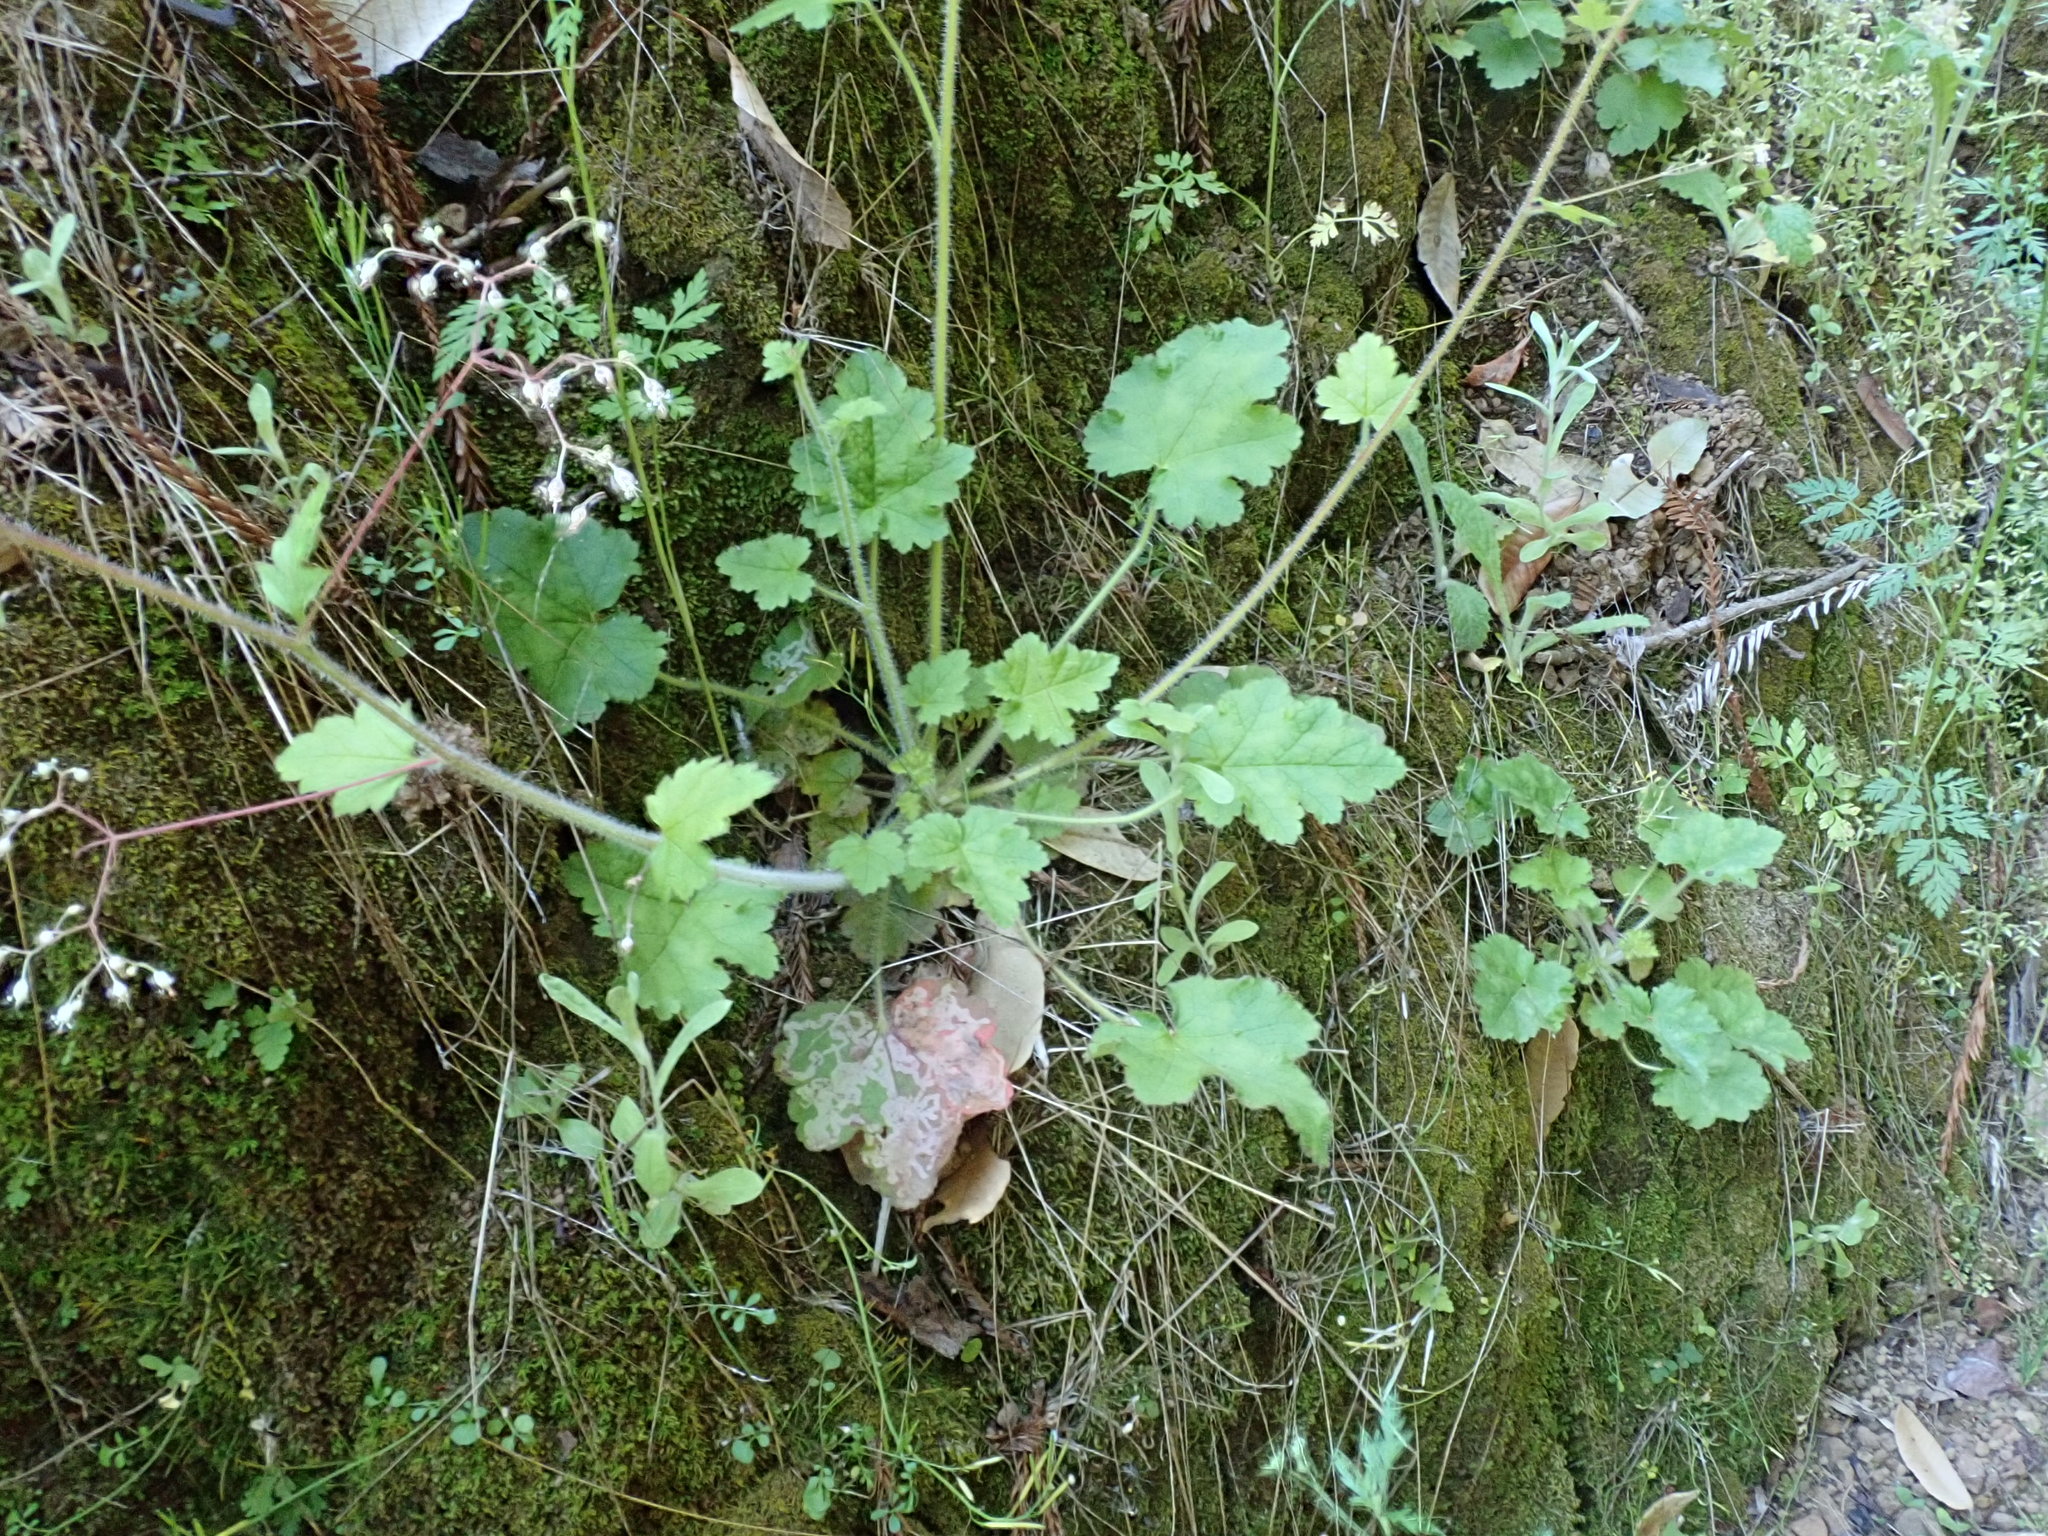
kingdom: Plantae
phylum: Tracheophyta
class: Magnoliopsida
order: Saxifragales
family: Saxifragaceae
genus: Heuchera
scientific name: Heuchera micrantha
